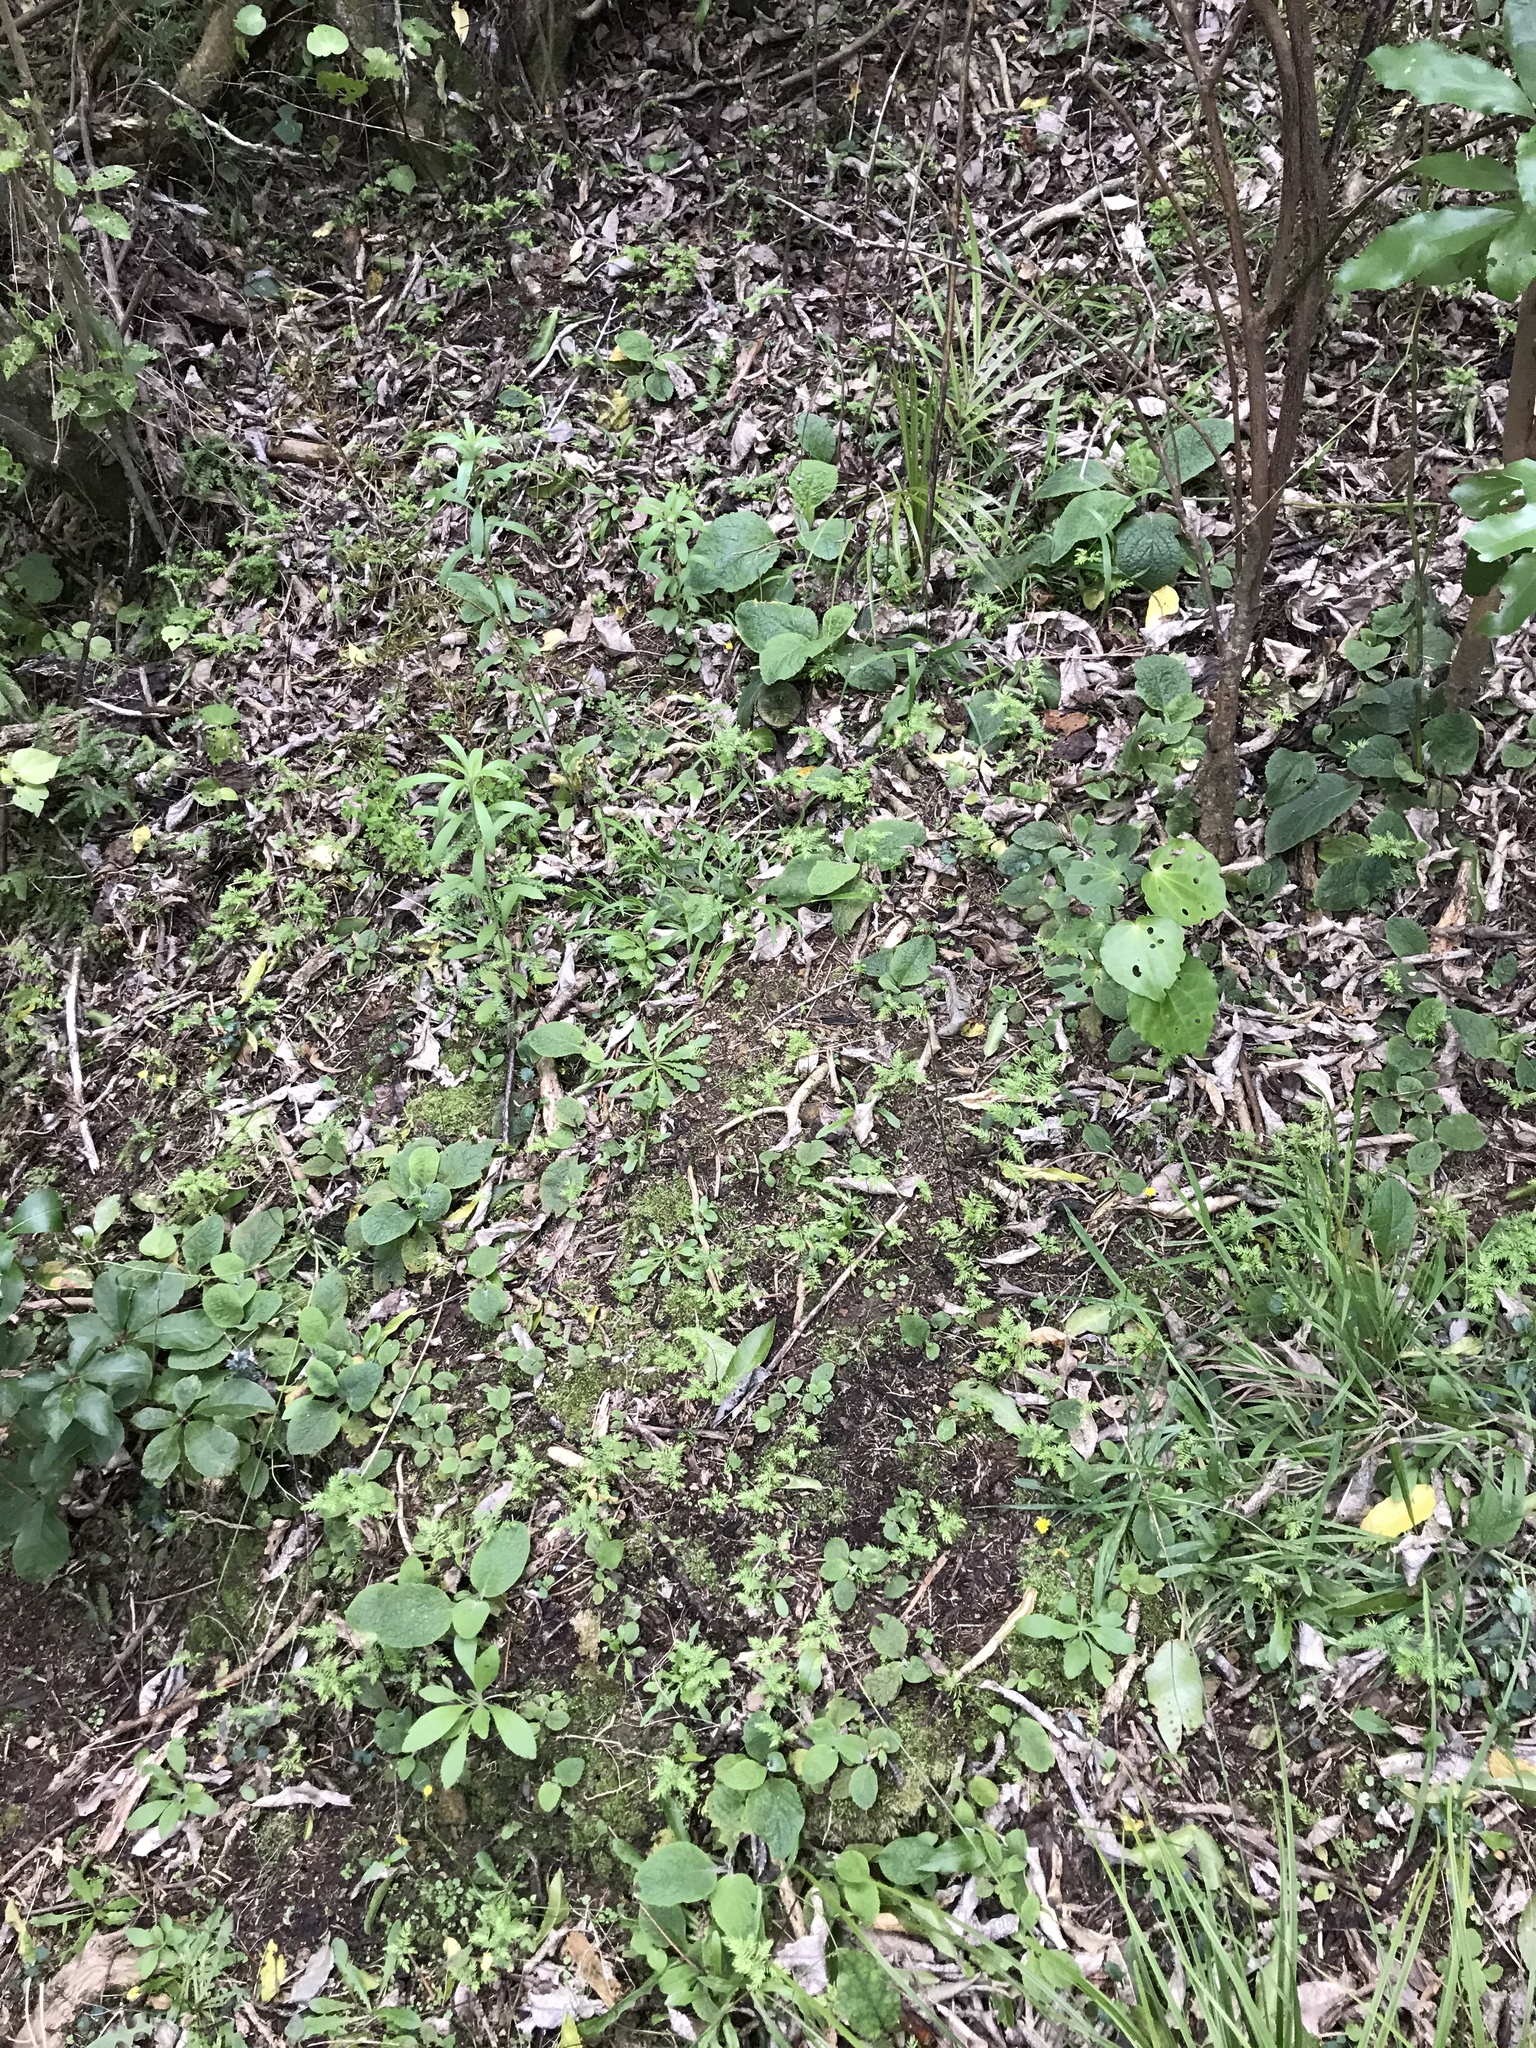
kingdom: Plantae
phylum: Tracheophyta
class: Liliopsida
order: Asparagales
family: Asparagaceae
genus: Asparagus
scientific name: Asparagus scandens
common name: Asparagus-fern
